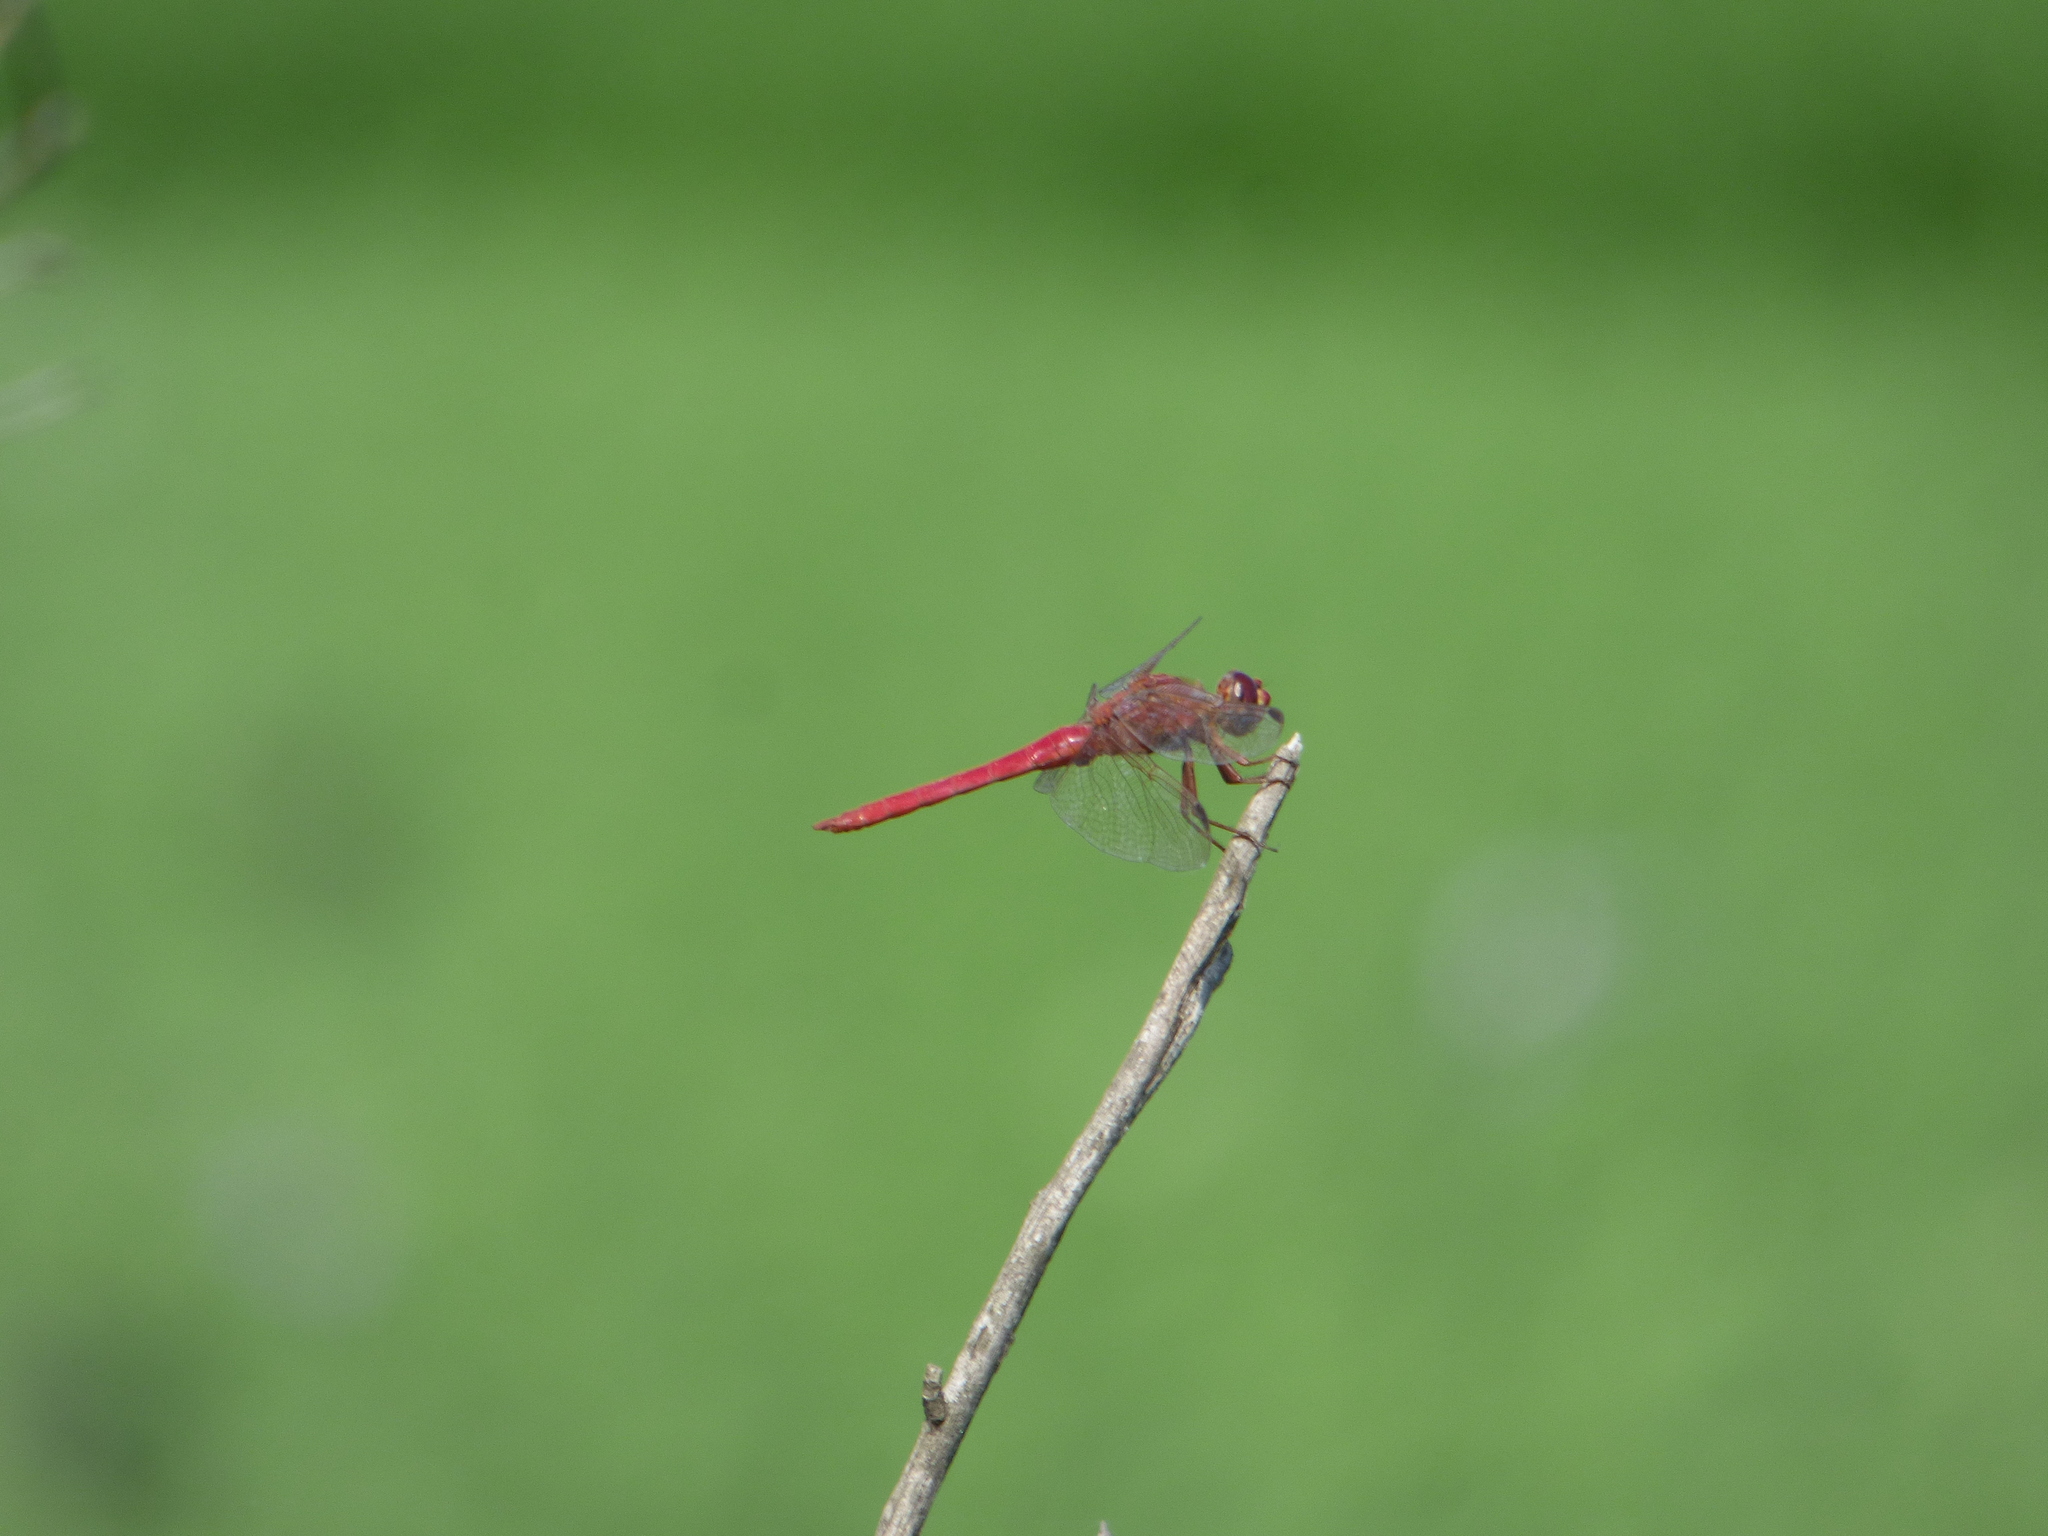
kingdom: Animalia
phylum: Arthropoda
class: Insecta
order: Odonata
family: Libellulidae
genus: Orthemis
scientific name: Orthemis nodiplaga
